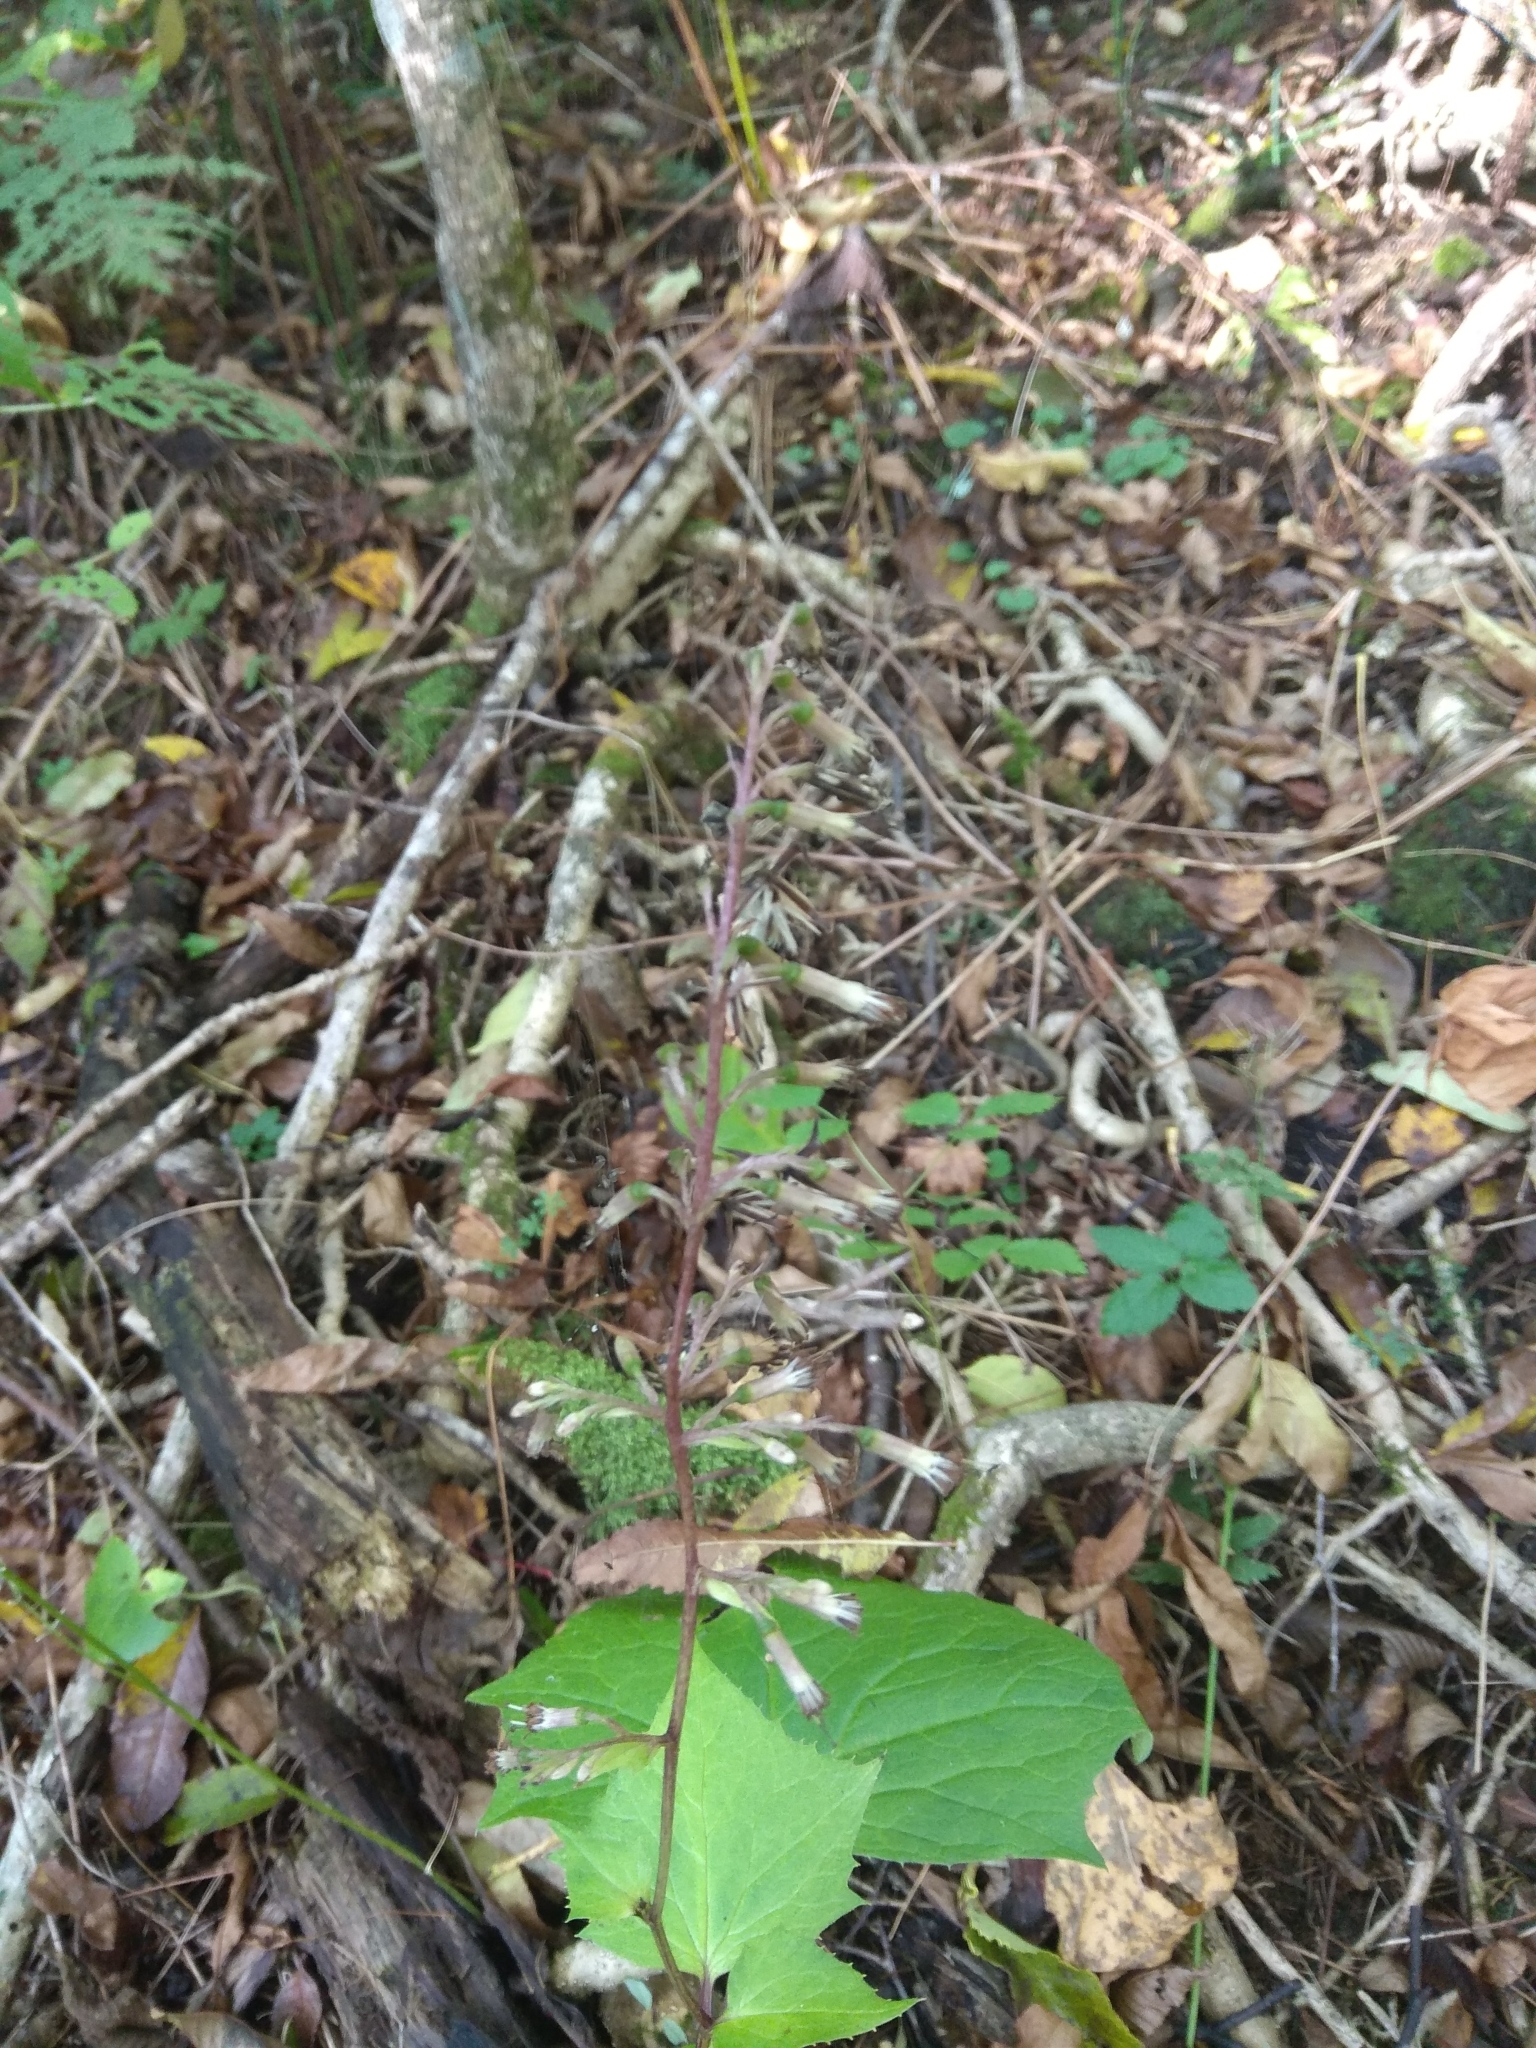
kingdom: Plantae
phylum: Tracheophyta
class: Magnoliopsida
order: Asterales
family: Asteraceae
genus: Parasenecio
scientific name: Parasenecio praetermissus
